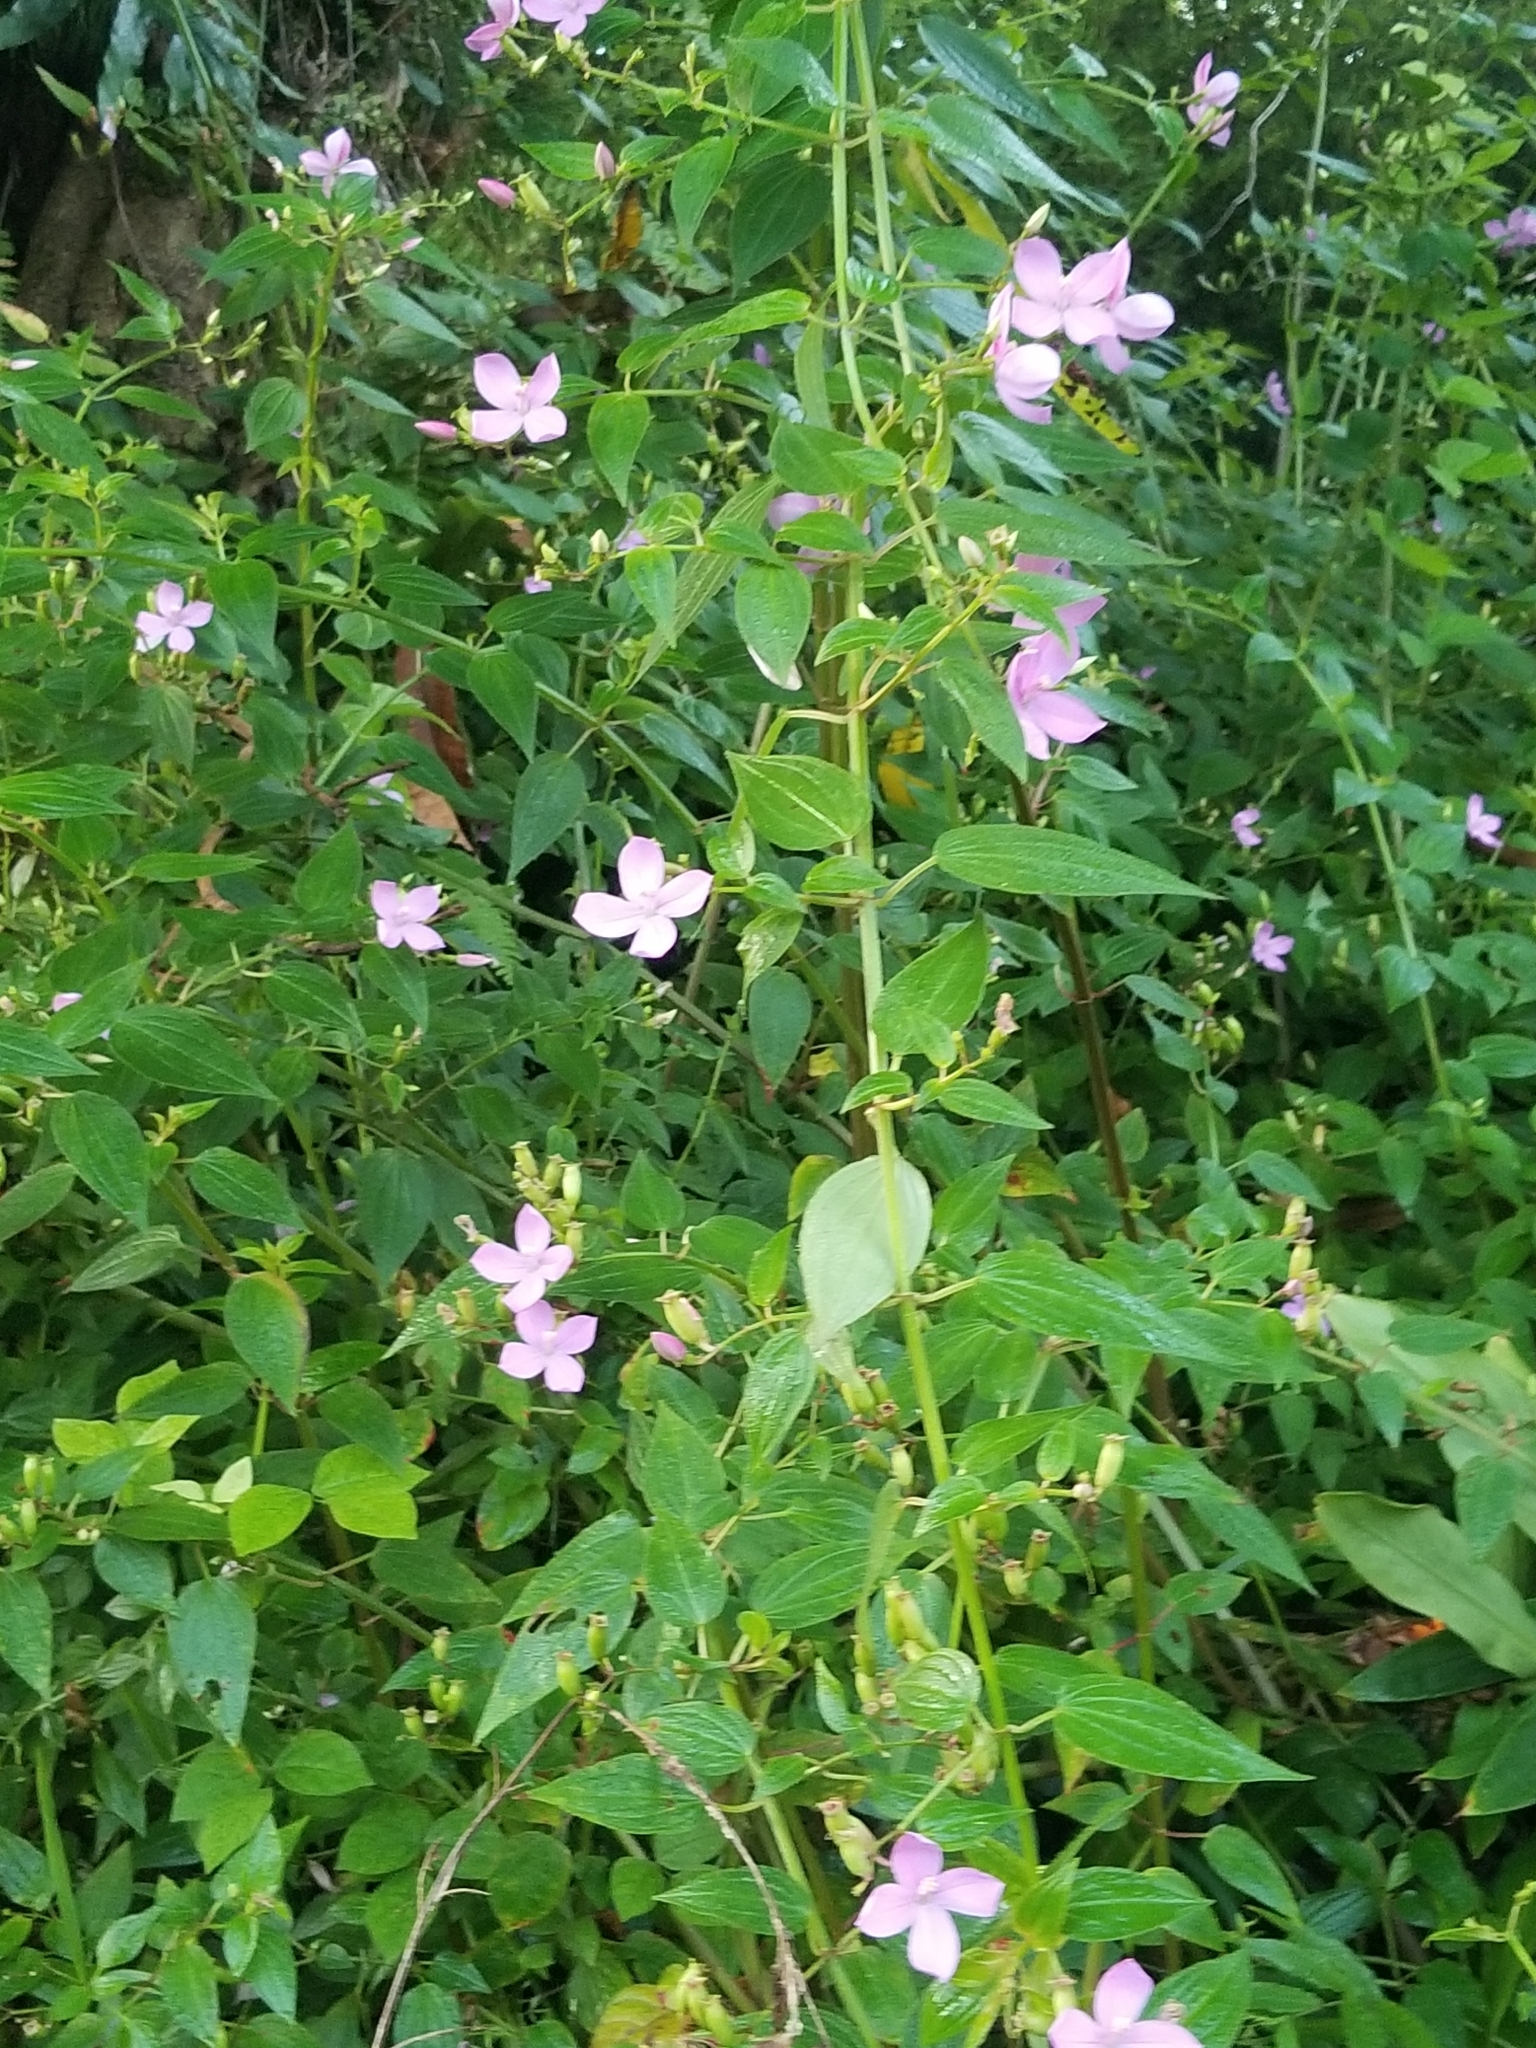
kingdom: Plantae
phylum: Tracheophyta
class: Magnoliopsida
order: Myrtales
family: Melastomataceae
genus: Arthrostemma
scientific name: Arthrostemma ciliatum
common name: Everblooming eavender
